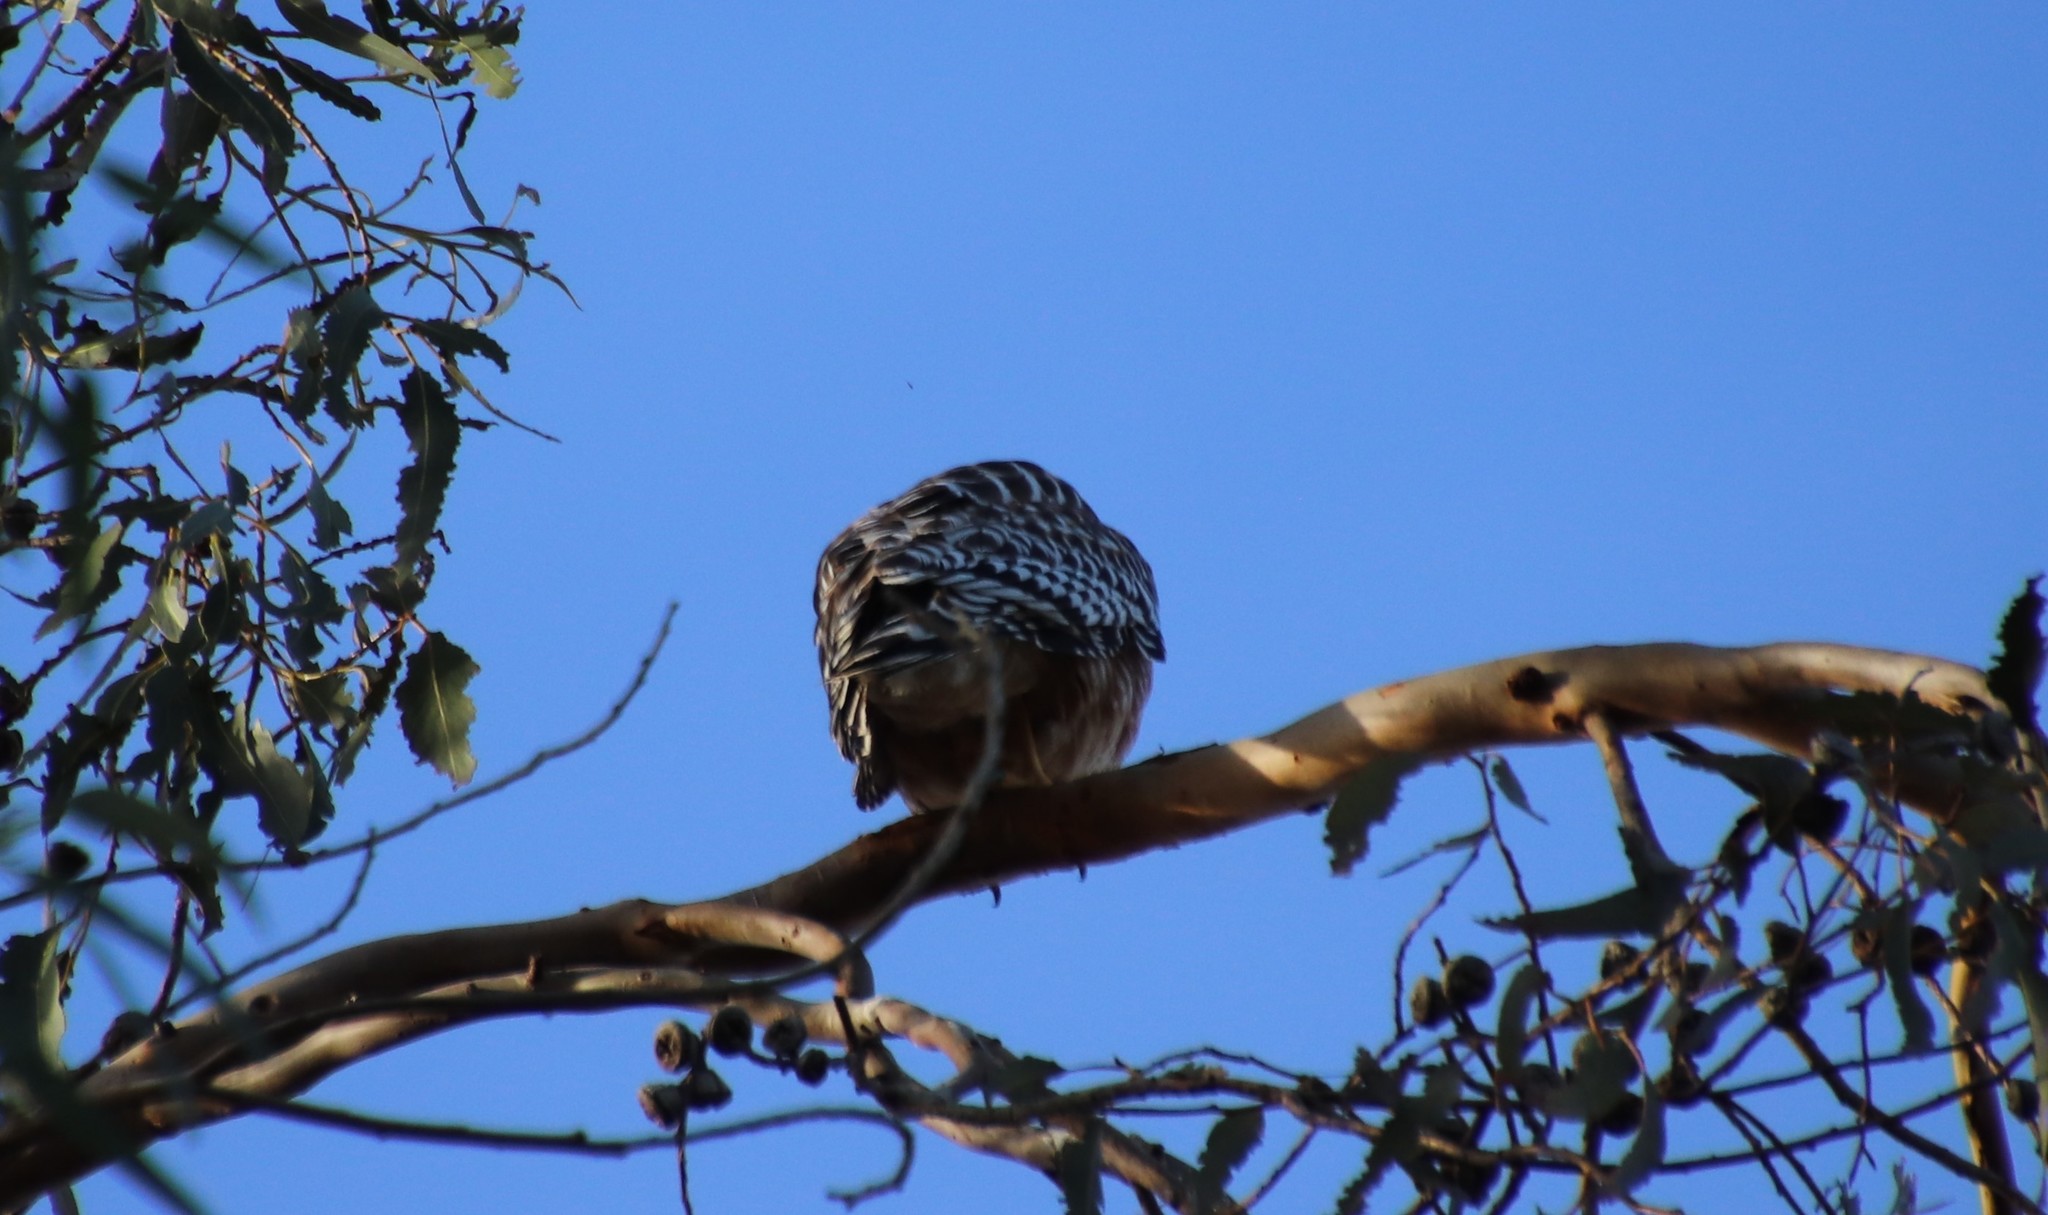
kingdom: Animalia
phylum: Chordata
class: Aves
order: Accipitriformes
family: Accipitridae
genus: Buteo
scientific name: Buteo lineatus
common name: Red-shouldered hawk
